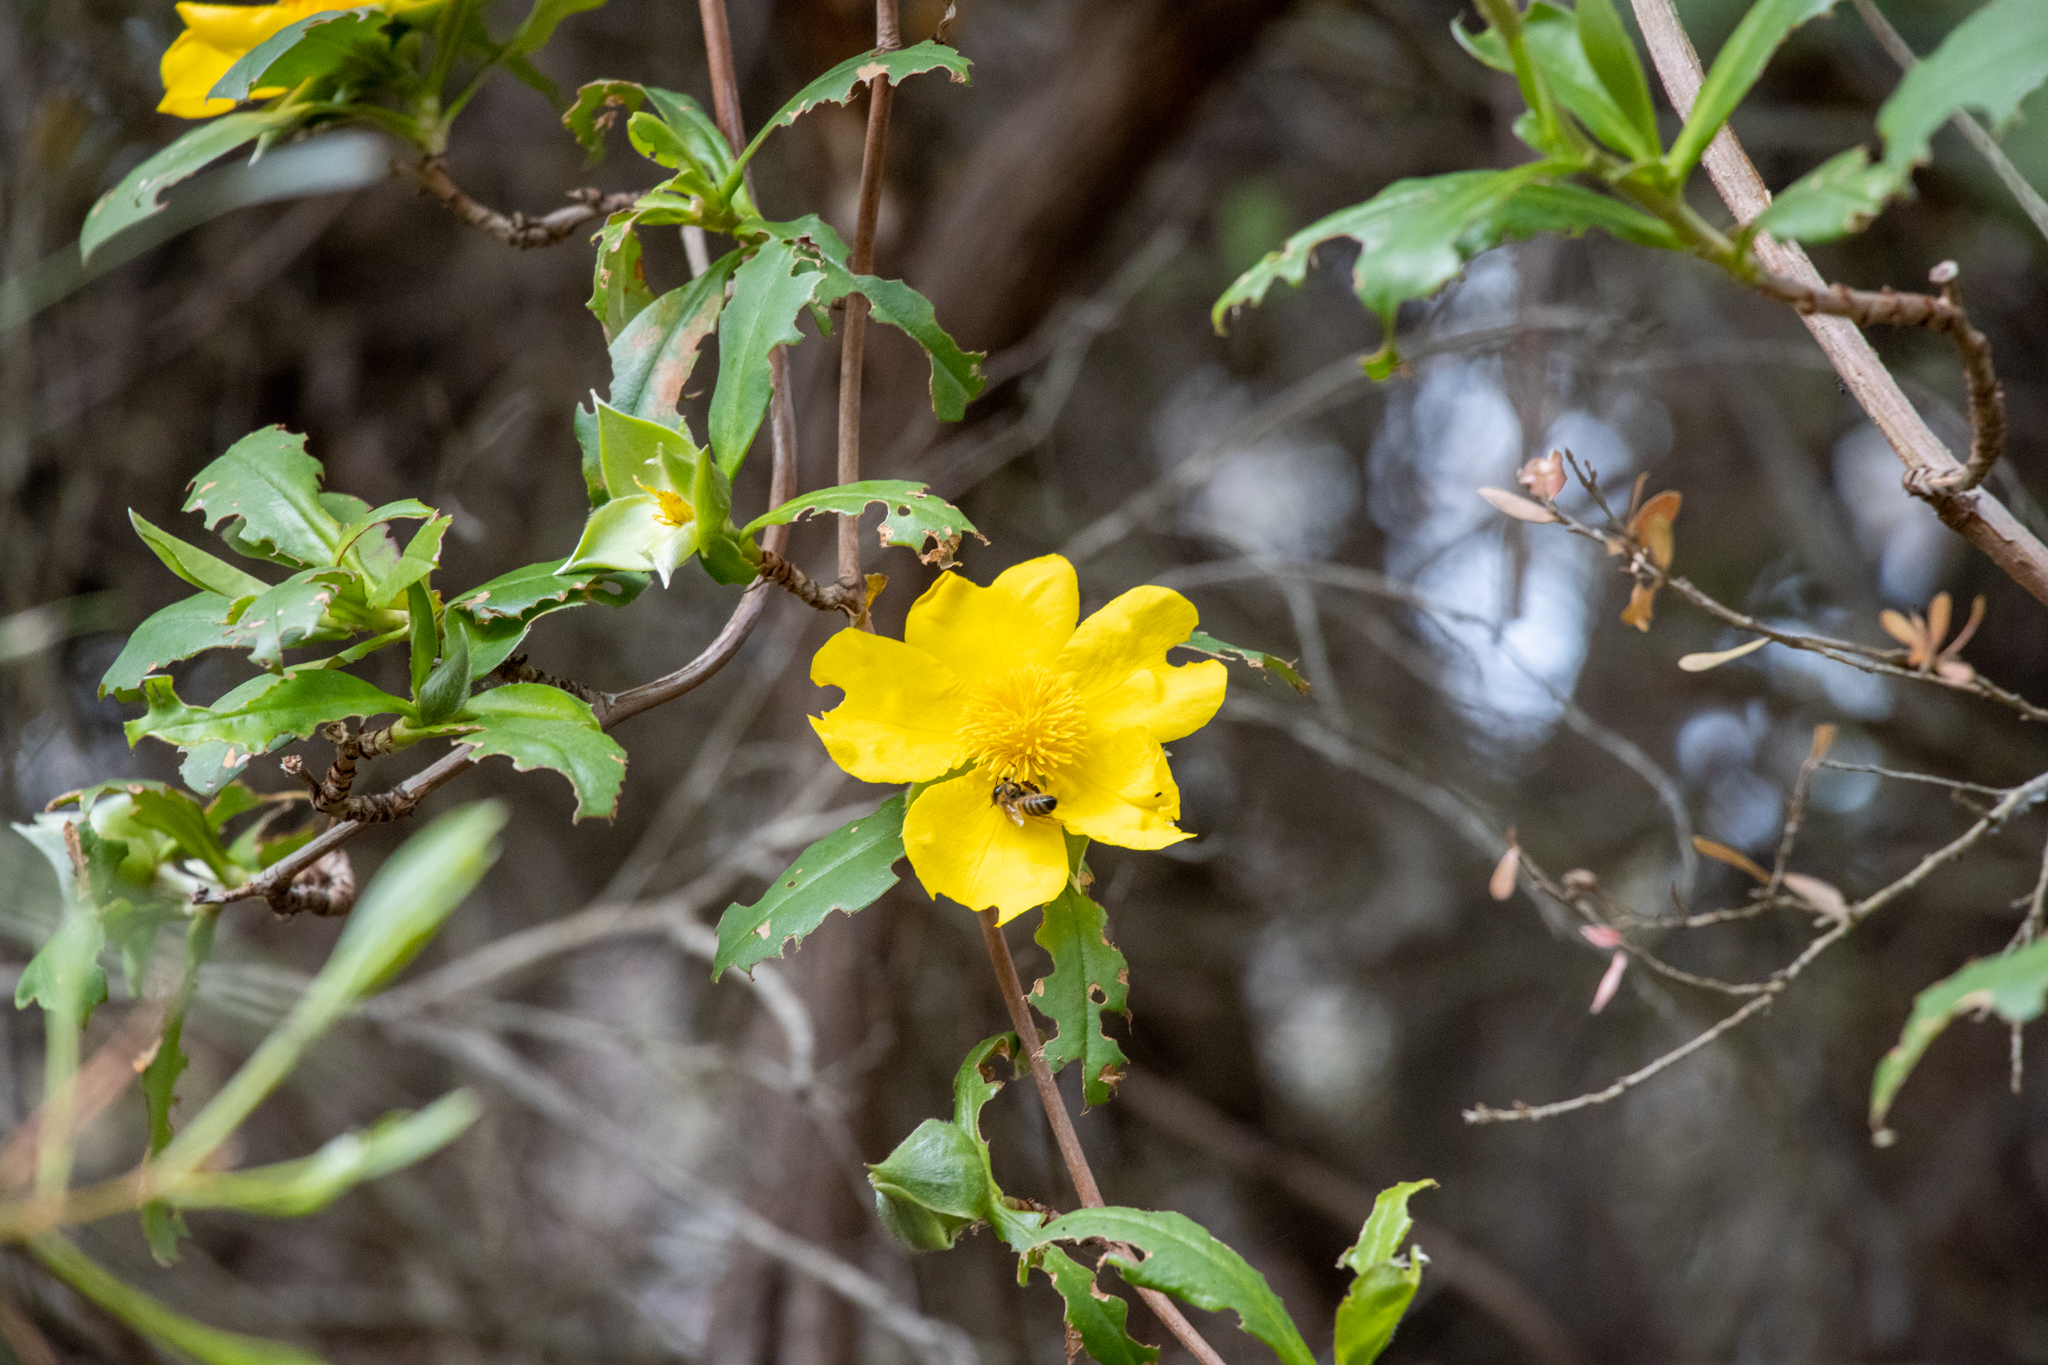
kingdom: Plantae
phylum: Tracheophyta
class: Magnoliopsida
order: Dilleniales
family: Dilleniaceae
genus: Hibbertia
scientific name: Hibbertia scandens
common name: Climbing guinea-flower
